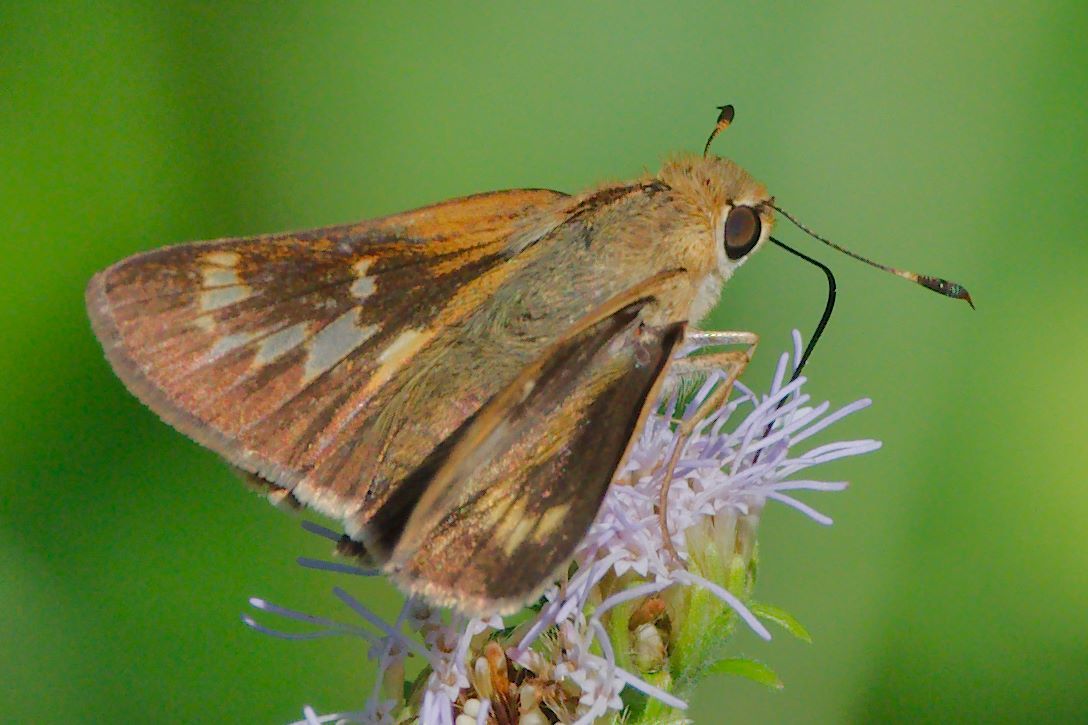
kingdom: Animalia
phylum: Arthropoda
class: Insecta
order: Lepidoptera
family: Hesperiidae
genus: Mellana
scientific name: Mellana eulogius
